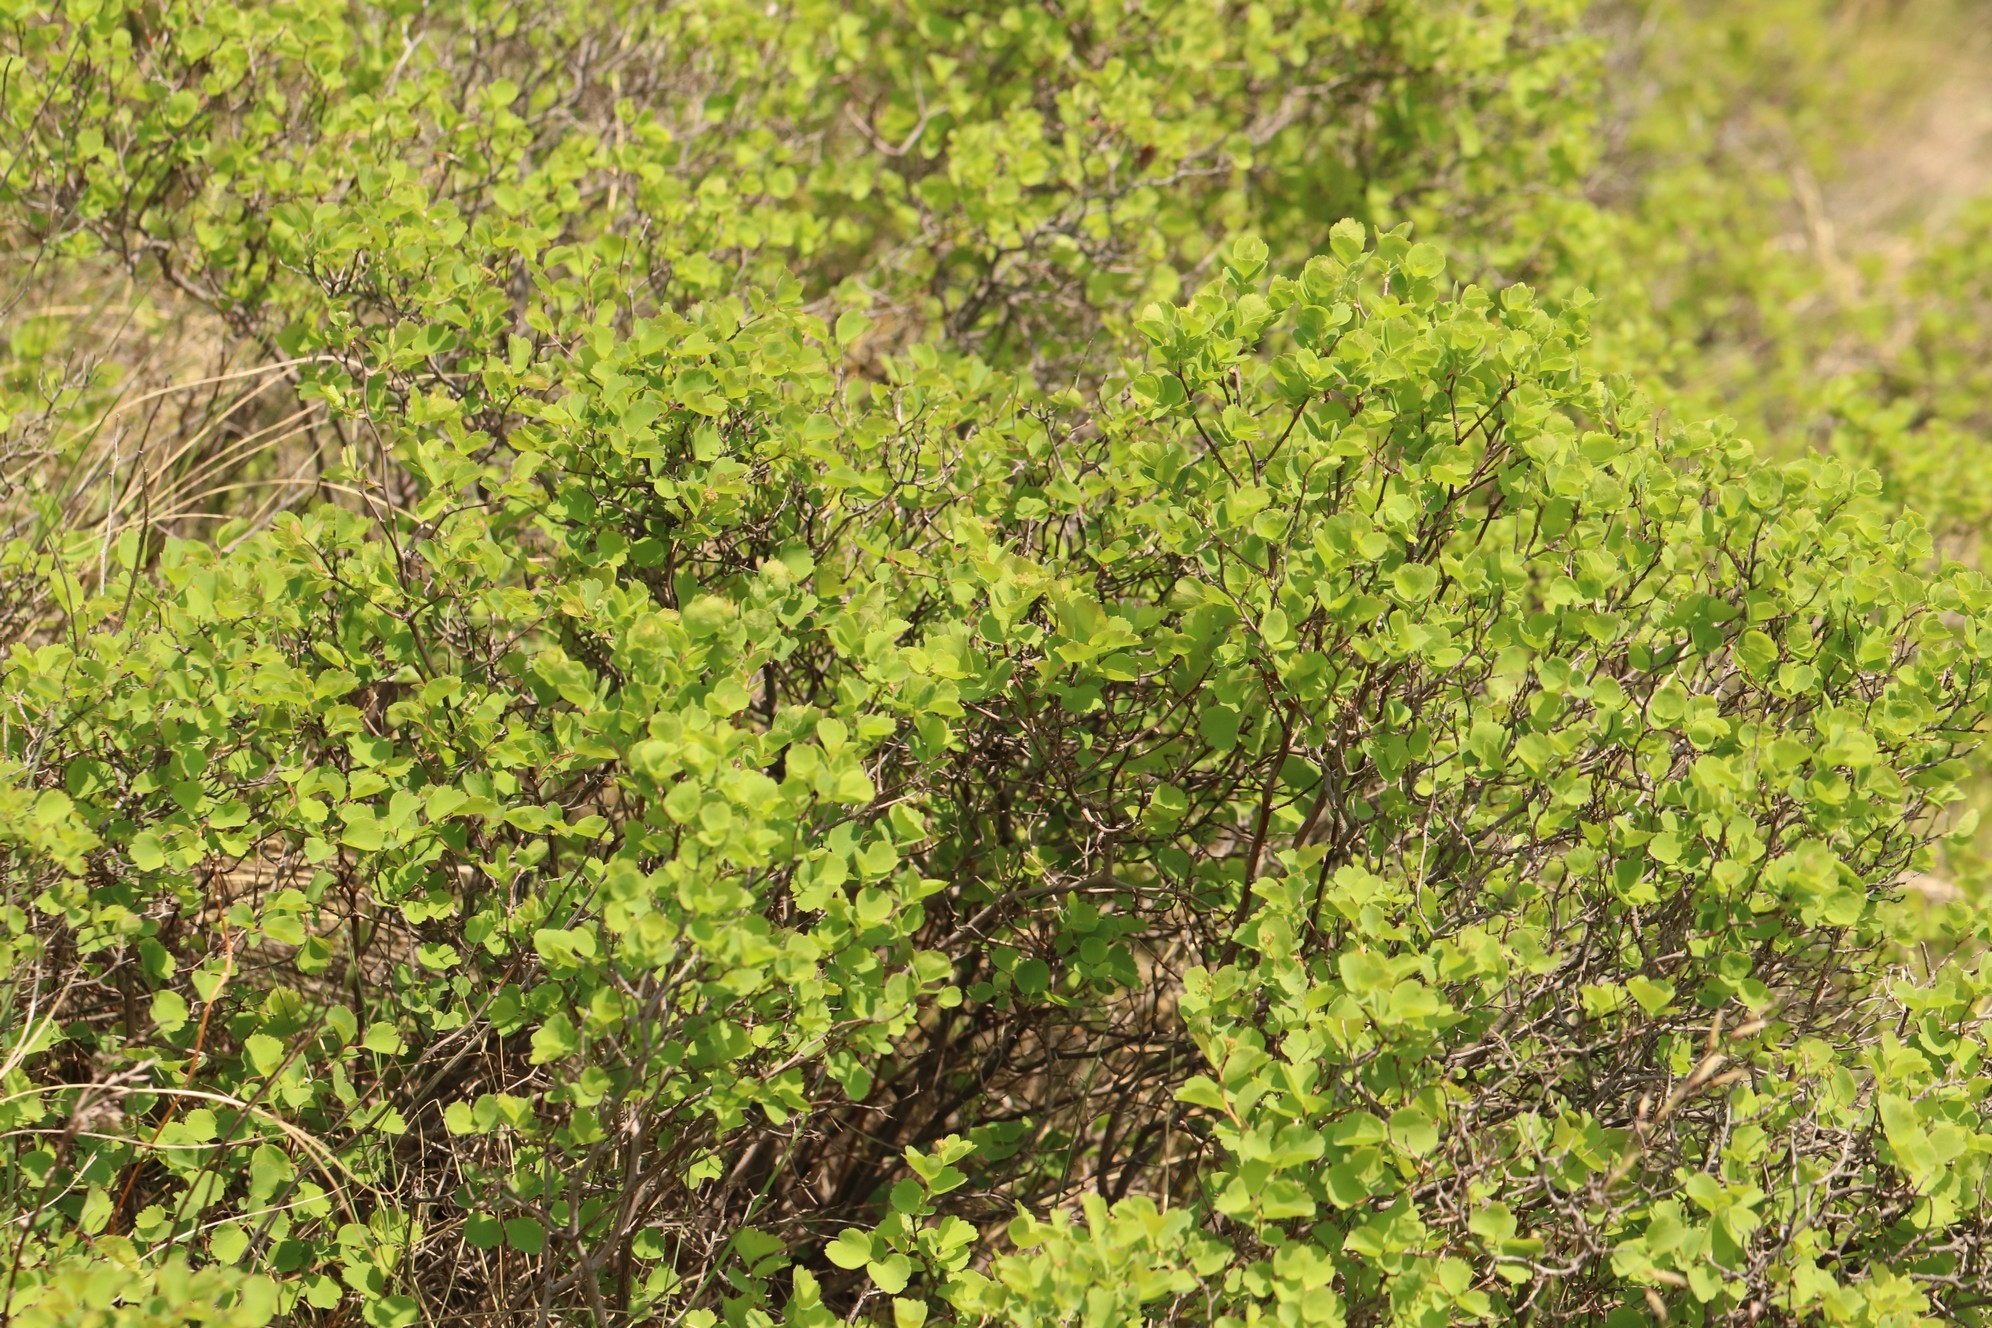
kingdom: Plantae
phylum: Tracheophyta
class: Magnoliopsida
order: Rosales
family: Rosaceae
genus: Spiraea
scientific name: Spiraea trilobata
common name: Asian meadowsweet
